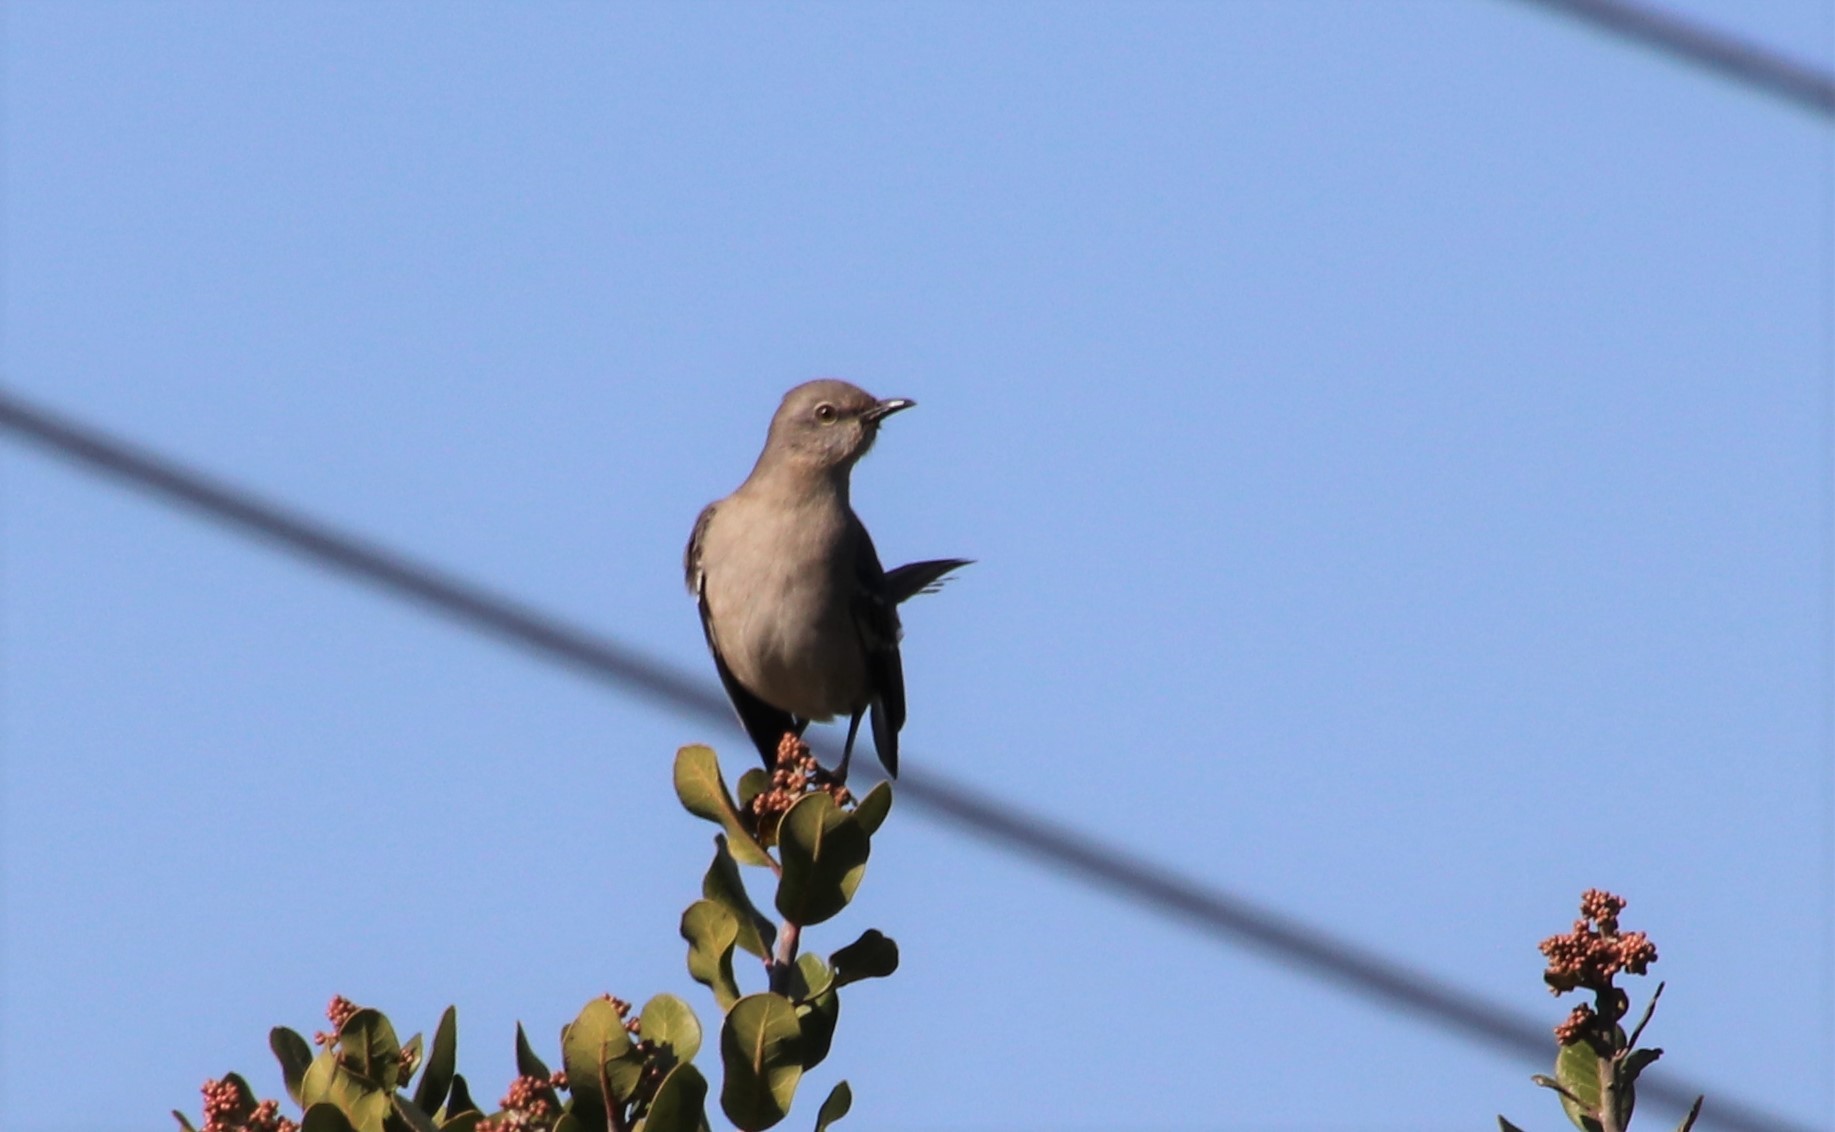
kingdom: Animalia
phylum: Chordata
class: Aves
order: Passeriformes
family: Mimidae
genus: Mimus
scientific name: Mimus polyglottos
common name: Northern mockingbird
